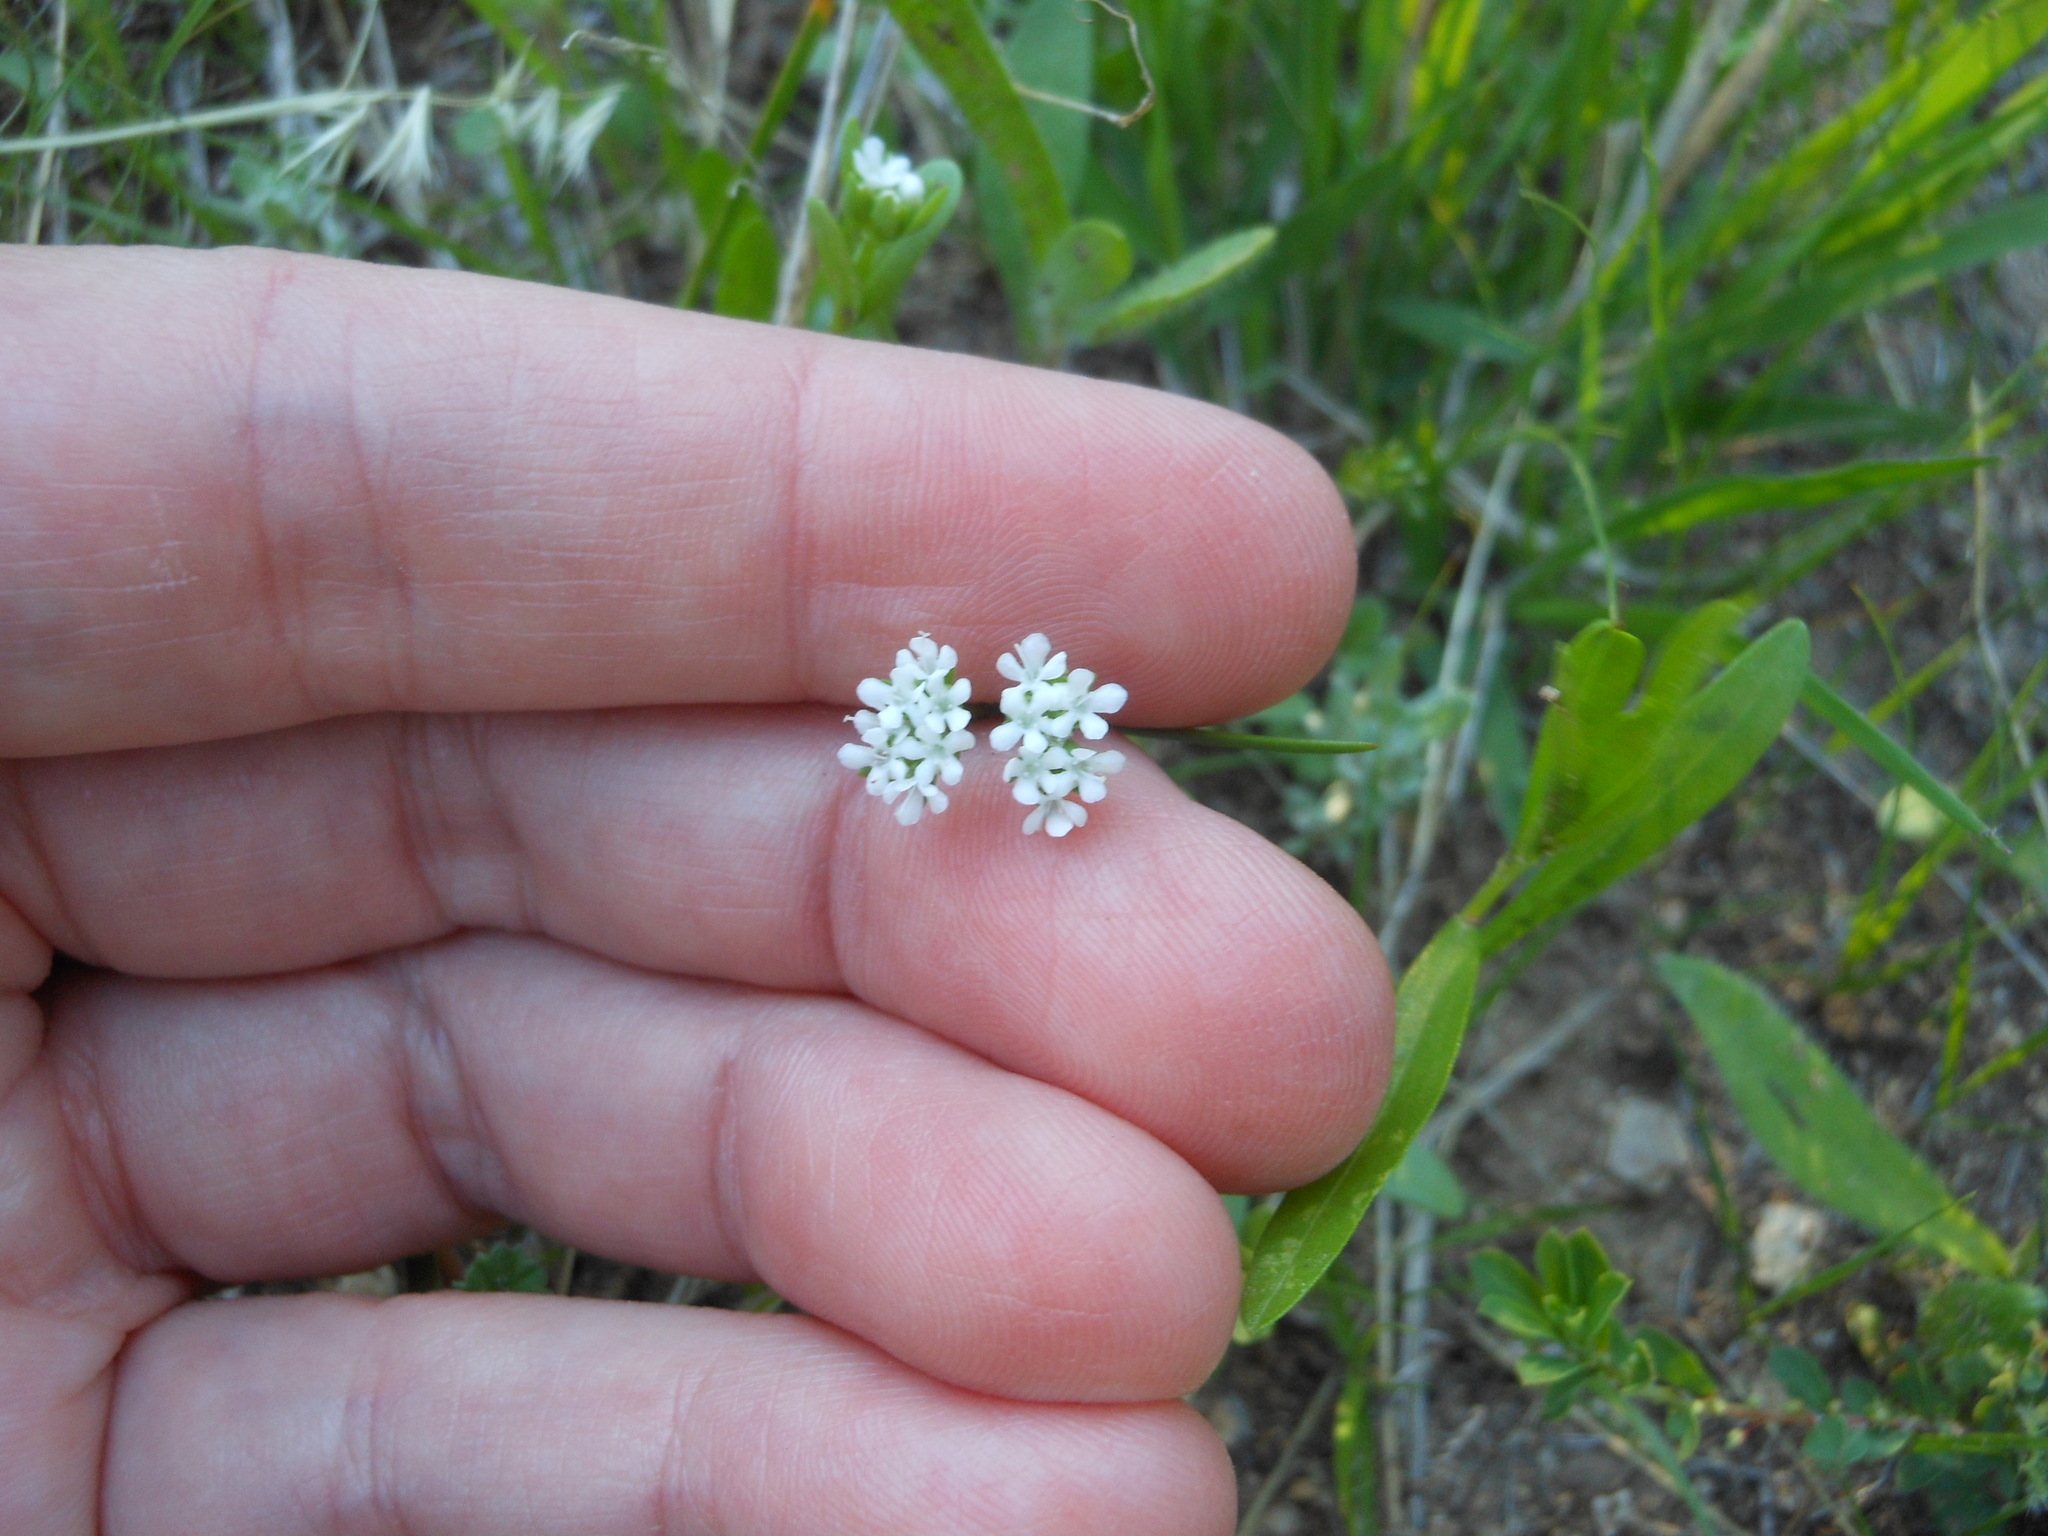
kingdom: Plantae
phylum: Tracheophyta
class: Magnoliopsida
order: Dipsacales
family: Caprifoliaceae
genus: Valerianella
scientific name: Valerianella amarella
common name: Hariy cornsalad
